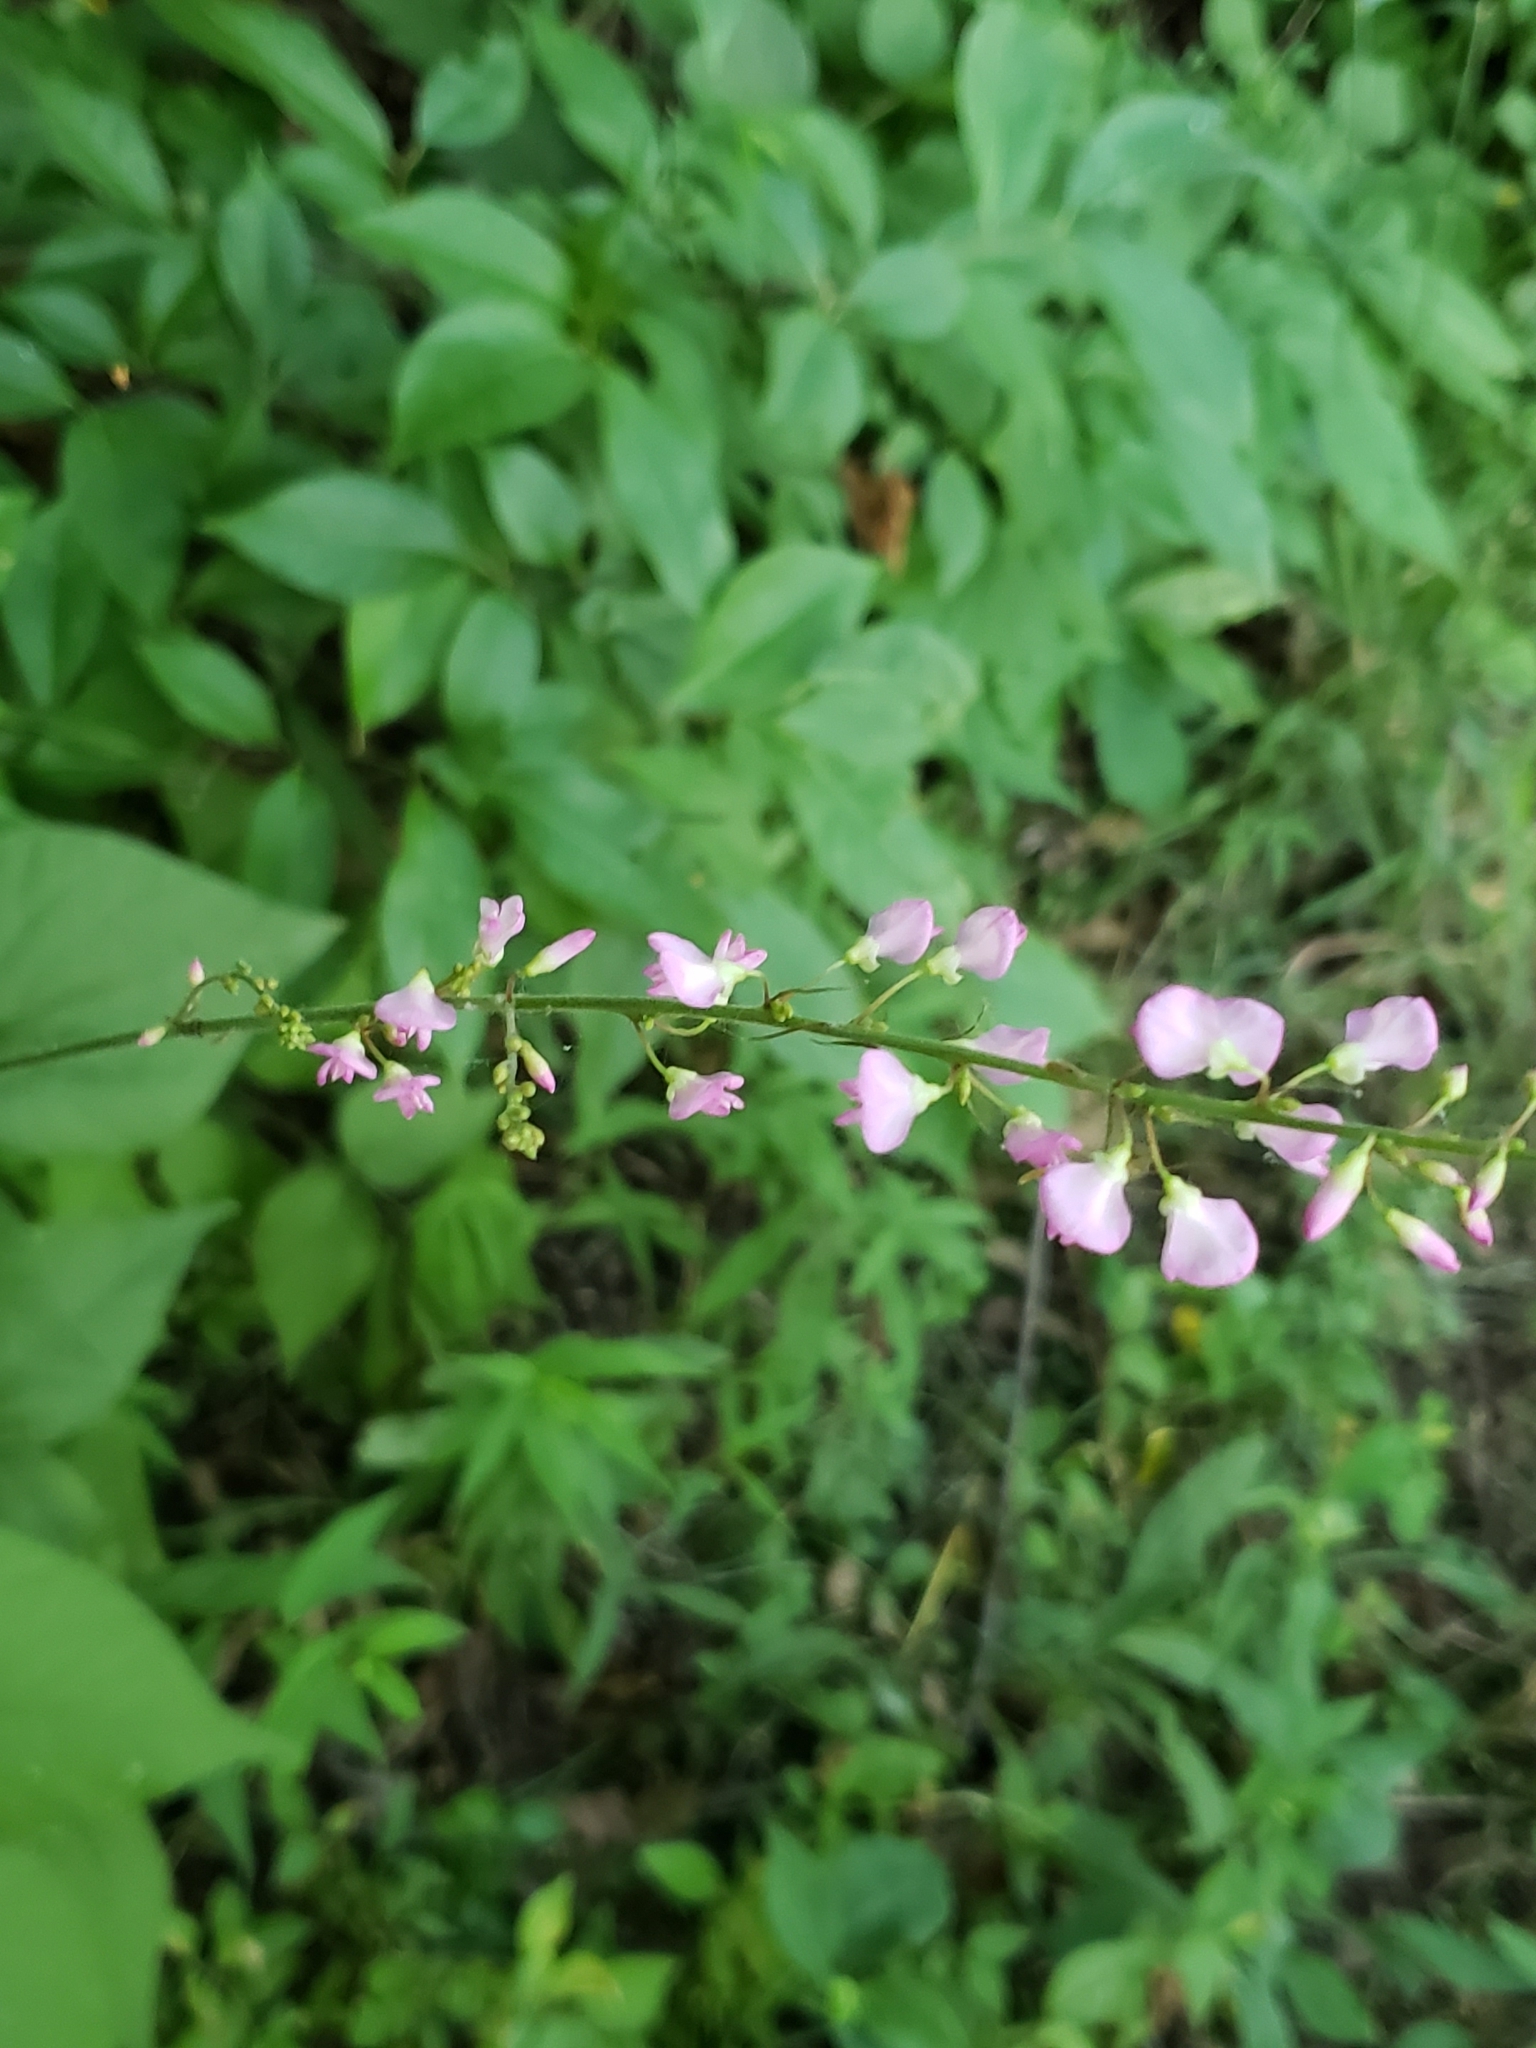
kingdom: Plantae
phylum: Tracheophyta
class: Magnoliopsida
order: Fabales
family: Fabaceae
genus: Hylodesmum
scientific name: Hylodesmum glutinosum
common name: Clustered-leaved tick-trefoil
